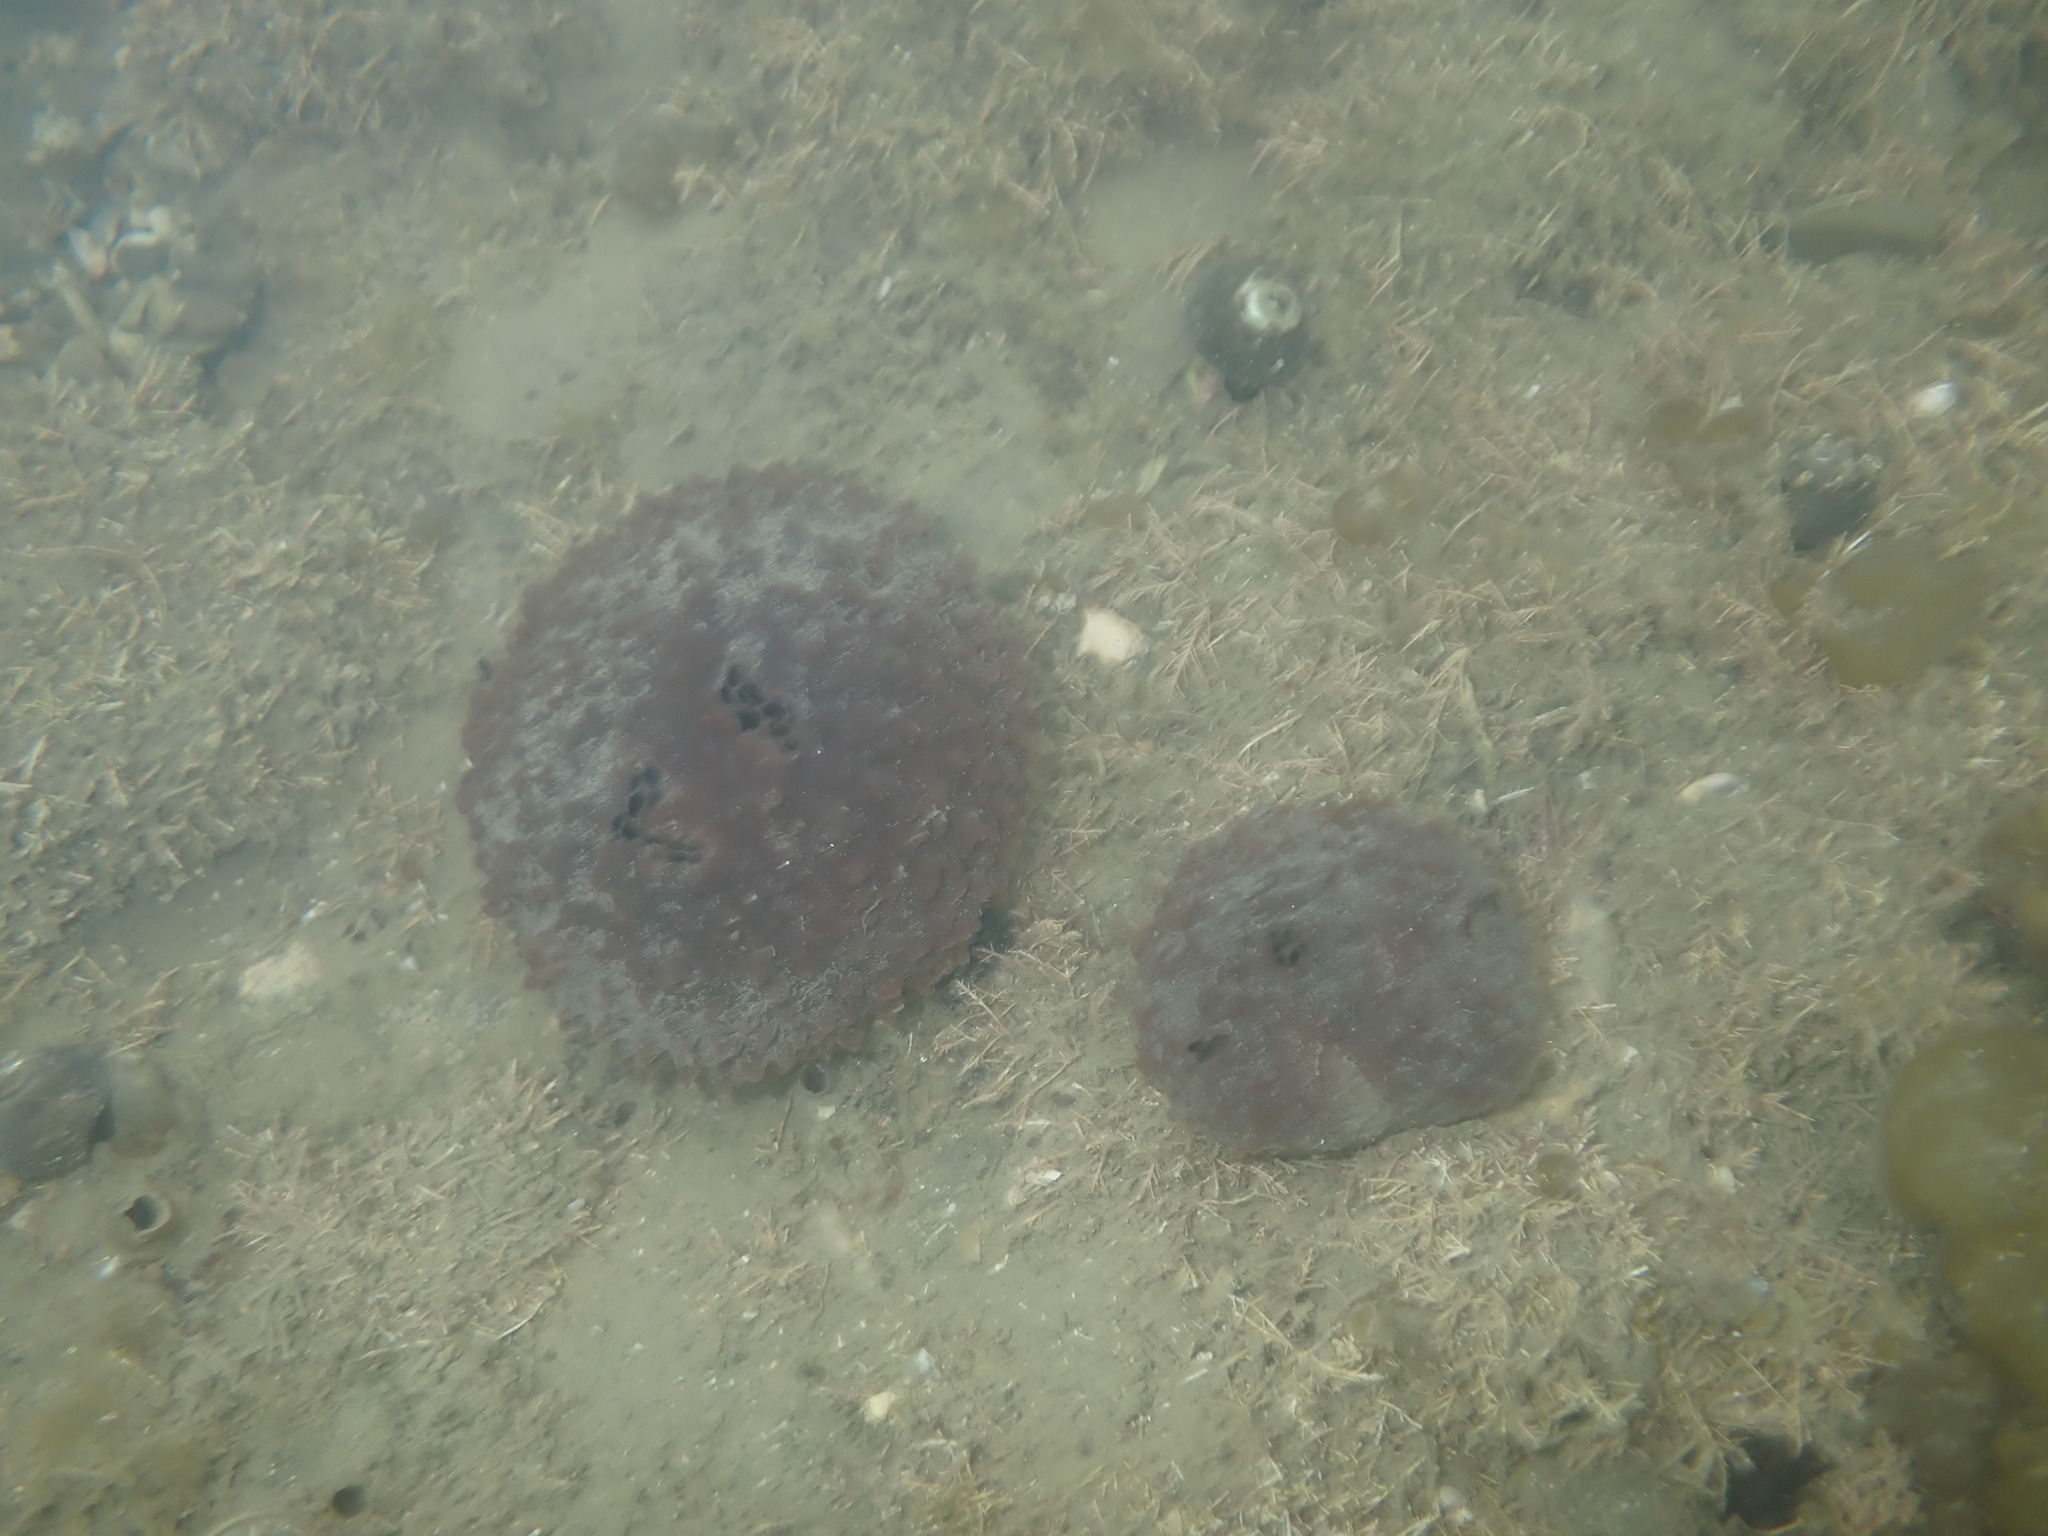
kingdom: Animalia
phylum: Porifera
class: Demospongiae
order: Suberitida
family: Suberitidae
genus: Aaptos
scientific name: Aaptos tenta
